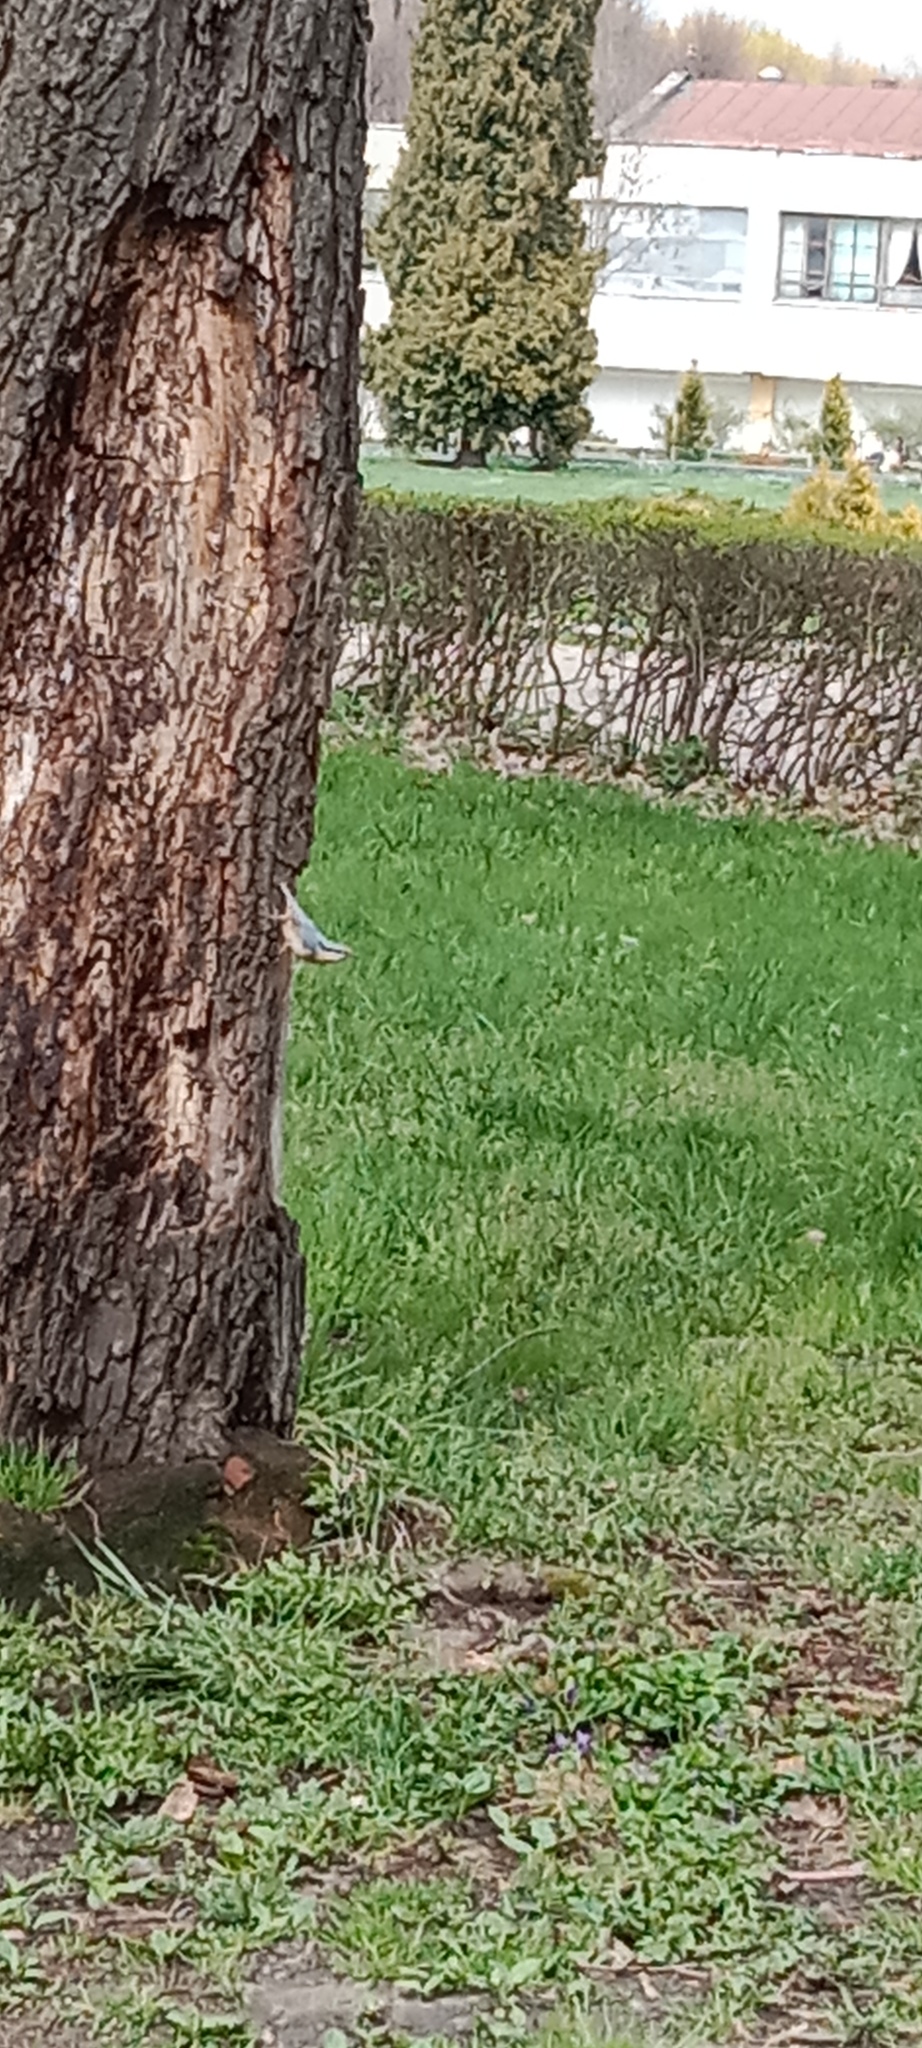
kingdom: Animalia
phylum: Chordata
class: Aves
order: Passeriformes
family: Sittidae
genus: Sitta
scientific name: Sitta europaea
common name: Eurasian nuthatch
